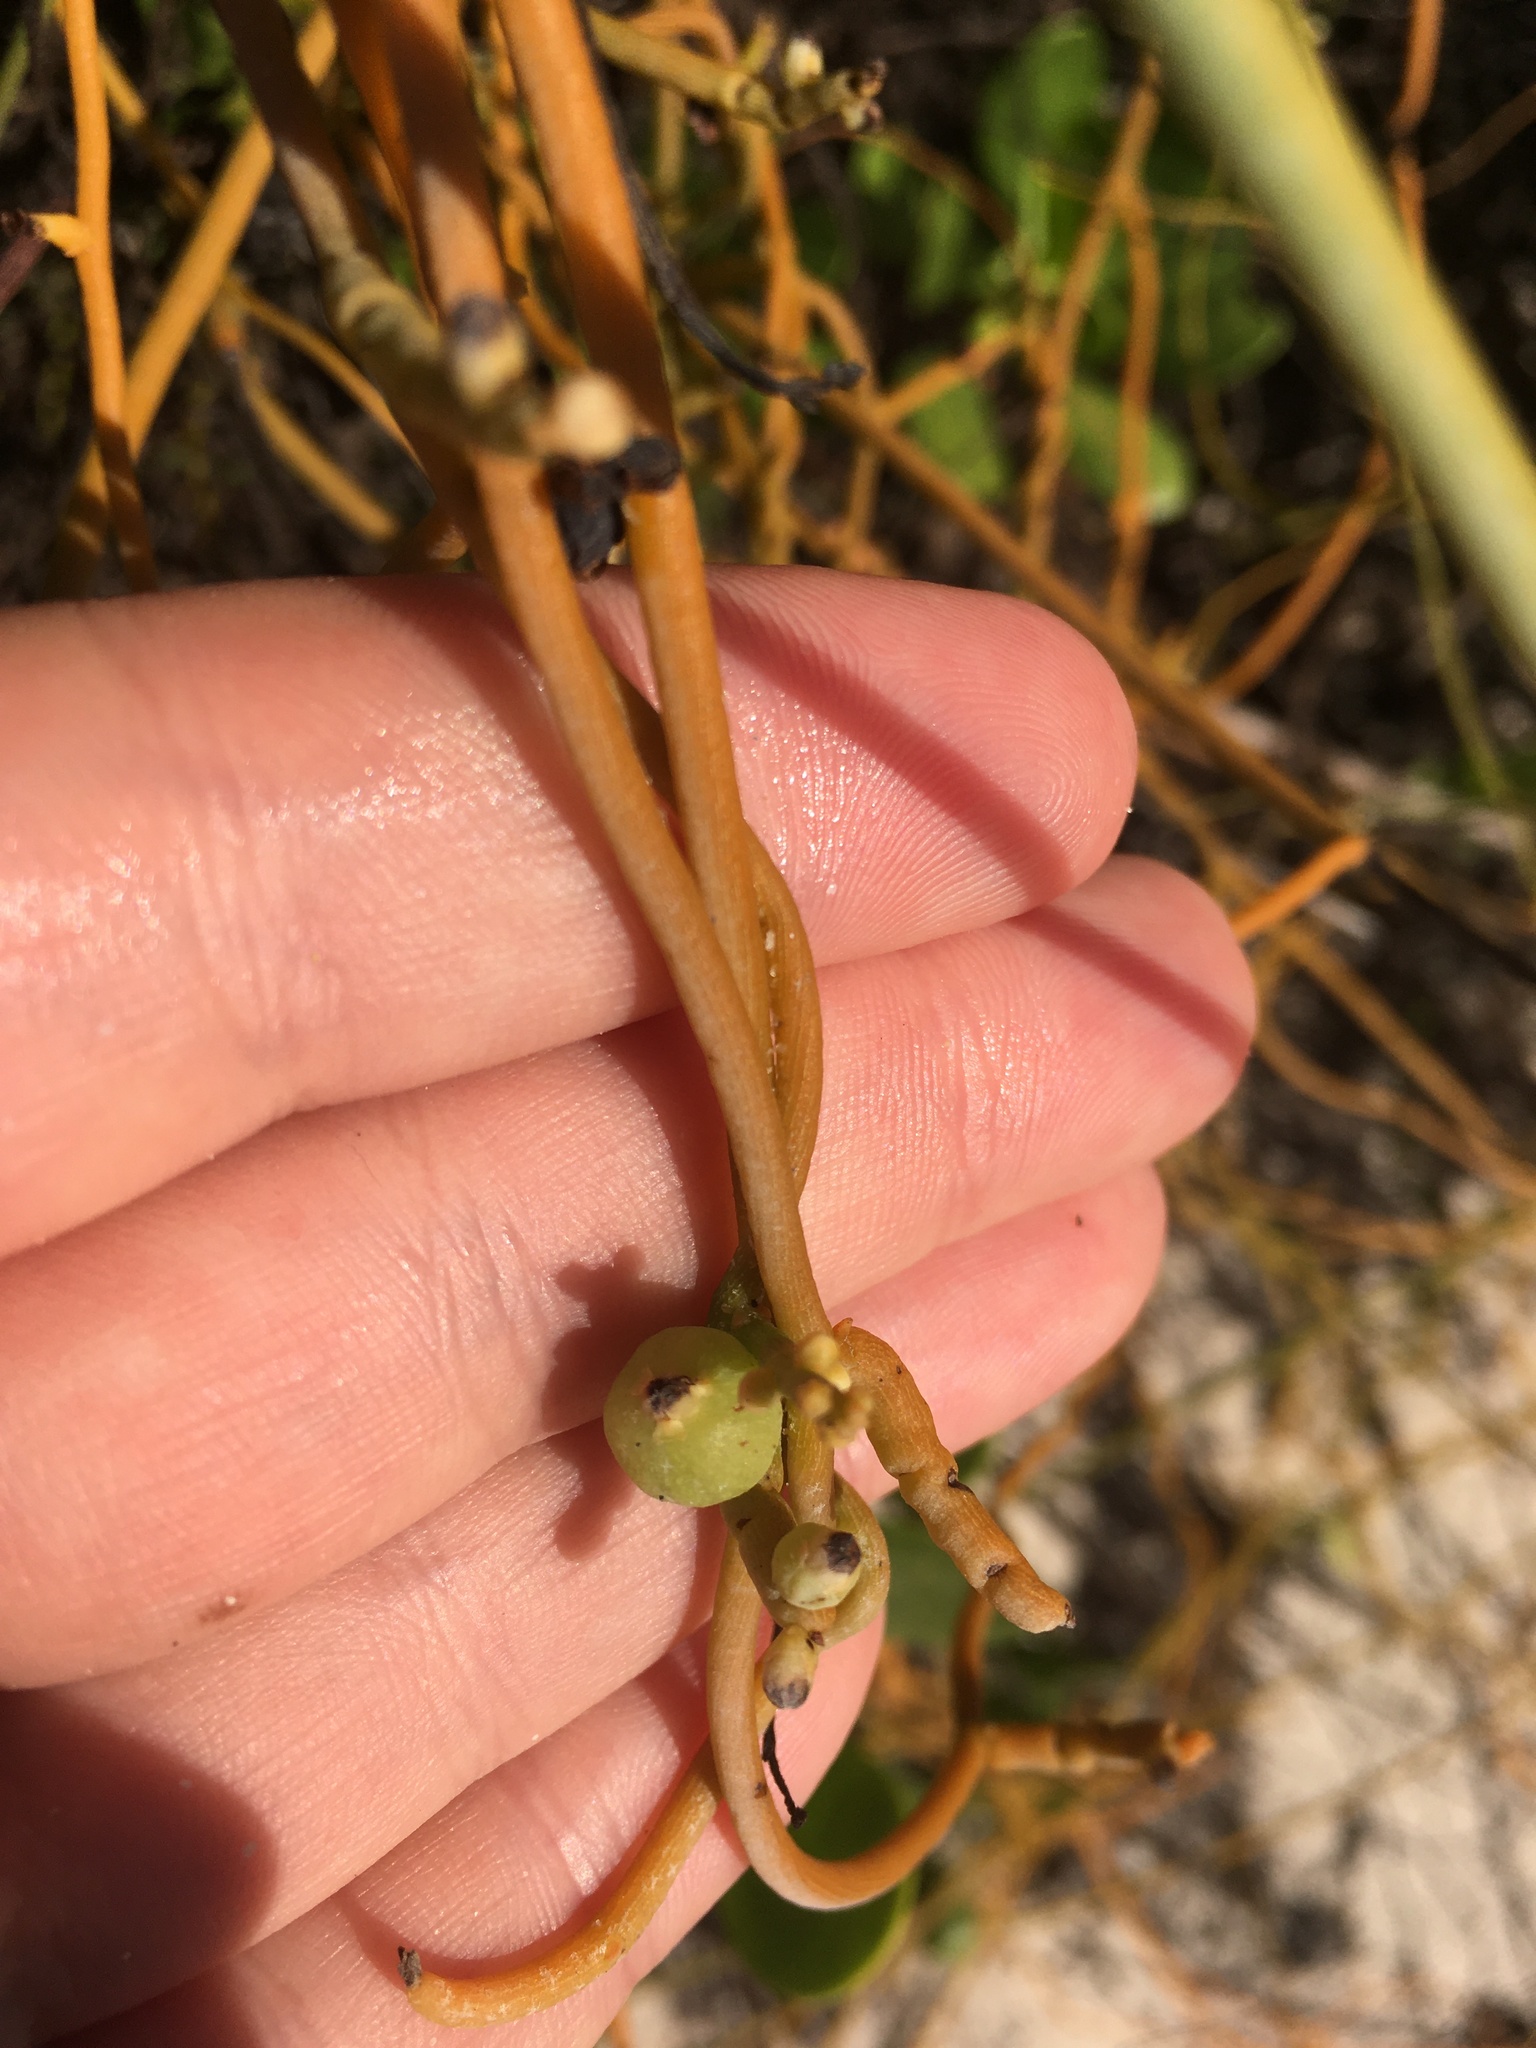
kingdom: Plantae
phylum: Tracheophyta
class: Magnoliopsida
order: Laurales
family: Lauraceae
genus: Cassytha
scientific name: Cassytha filiformis
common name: Dodder-laurel
